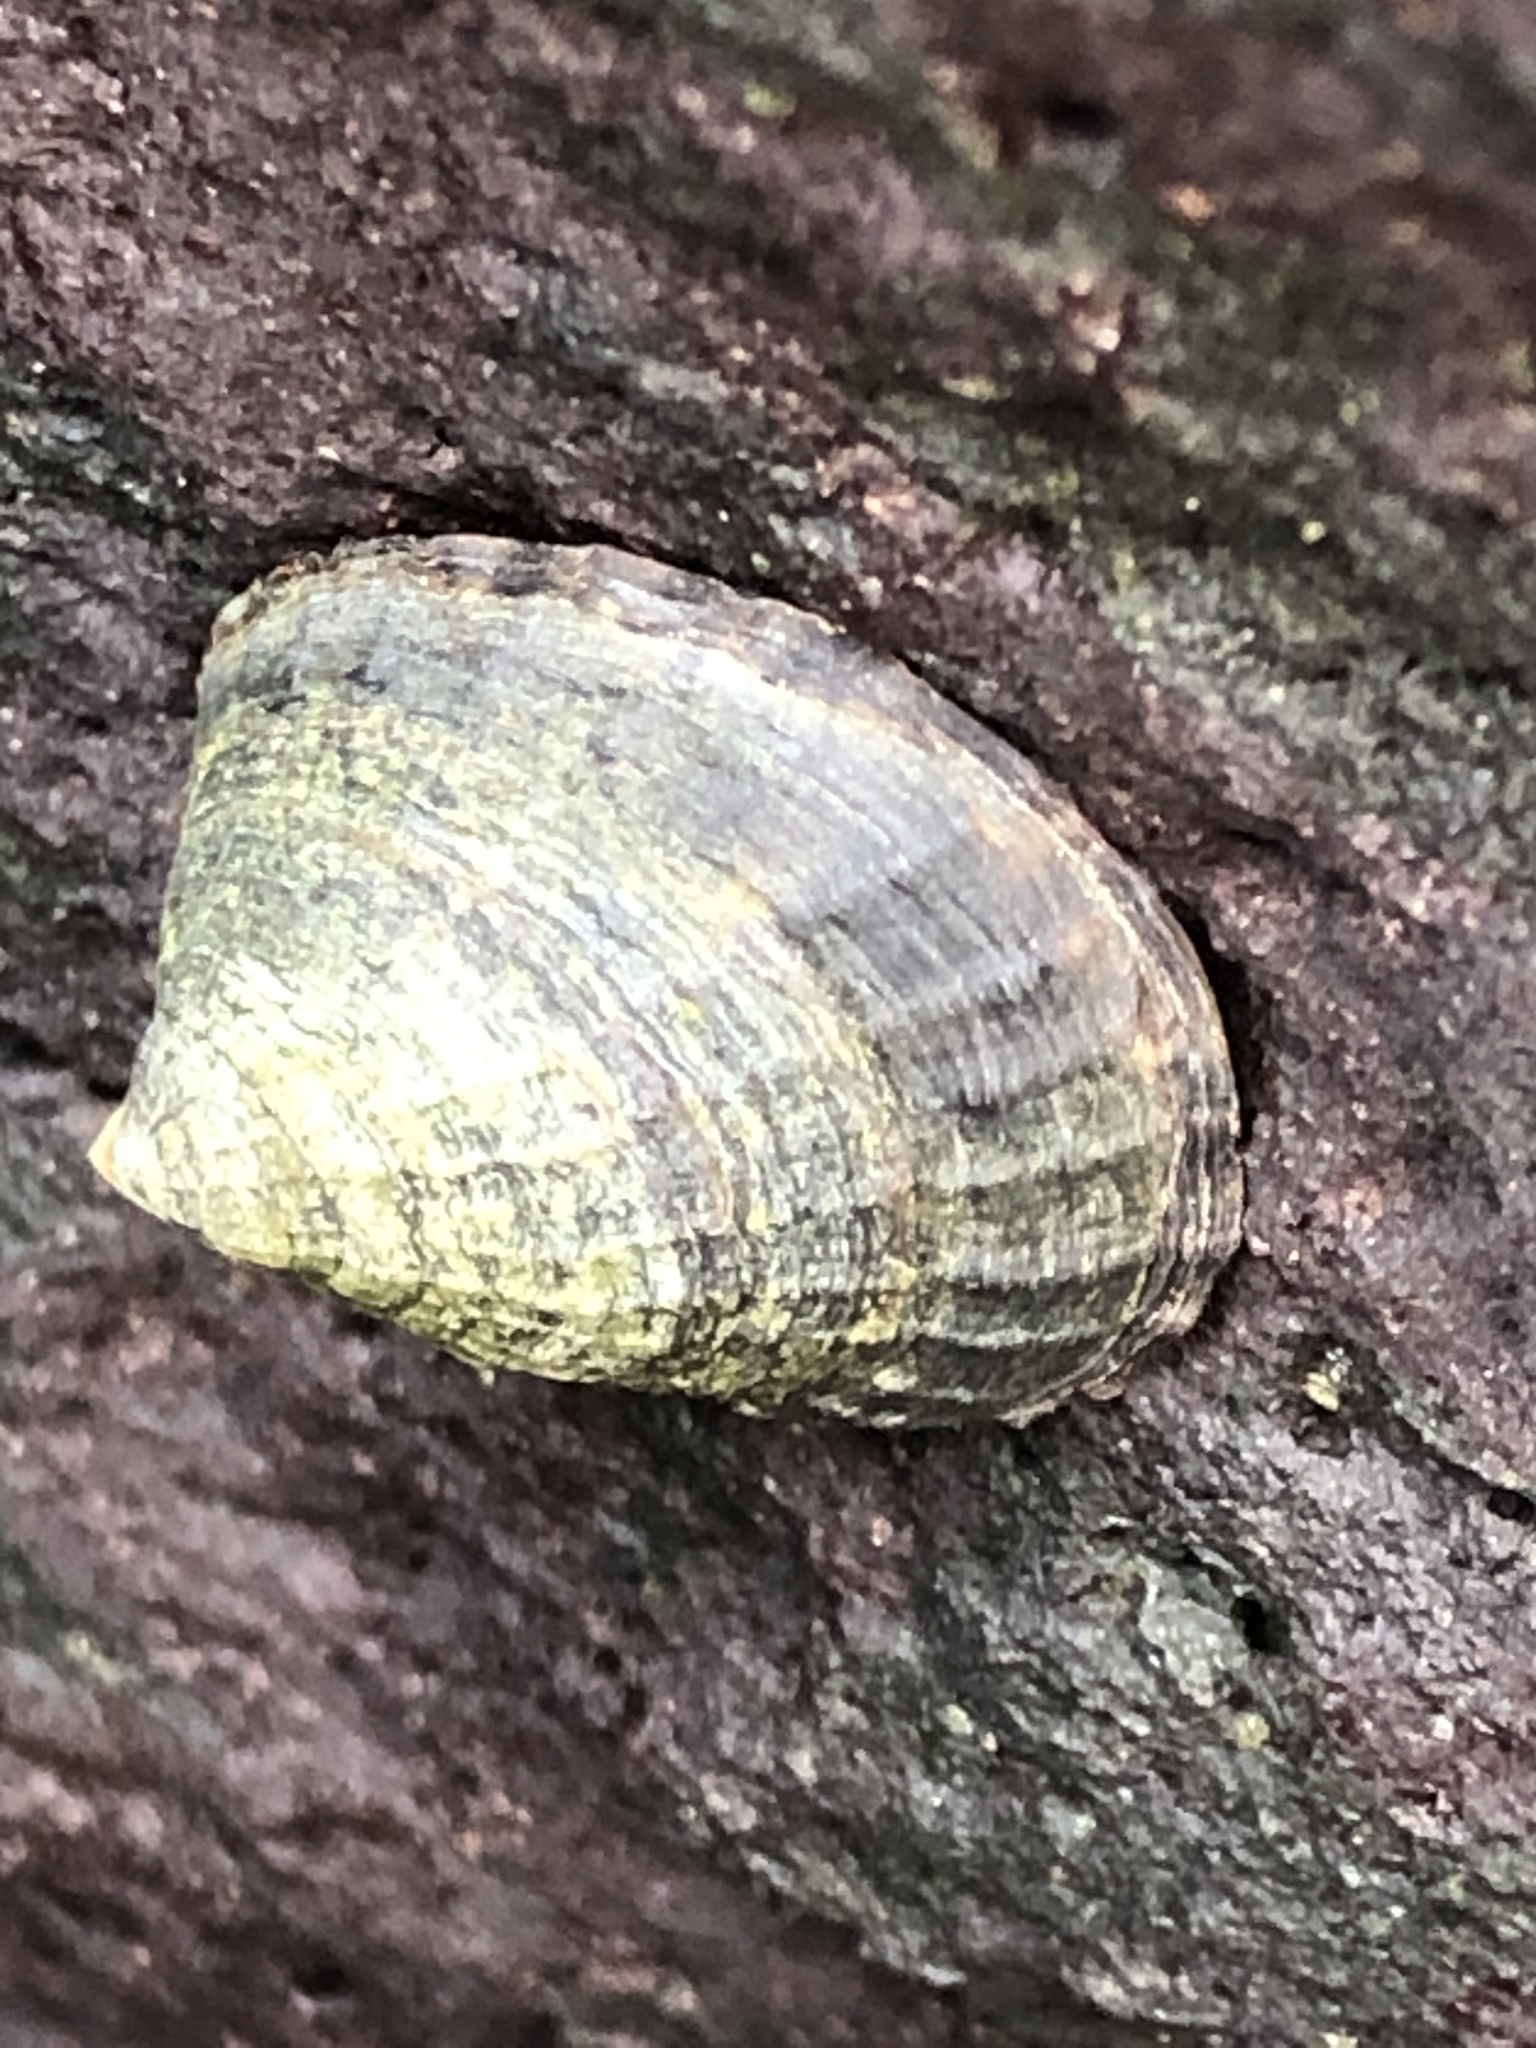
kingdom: Animalia
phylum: Mollusca
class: Gastropoda
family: Lottiidae
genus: Lottia
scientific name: Lottia dorsuosa
